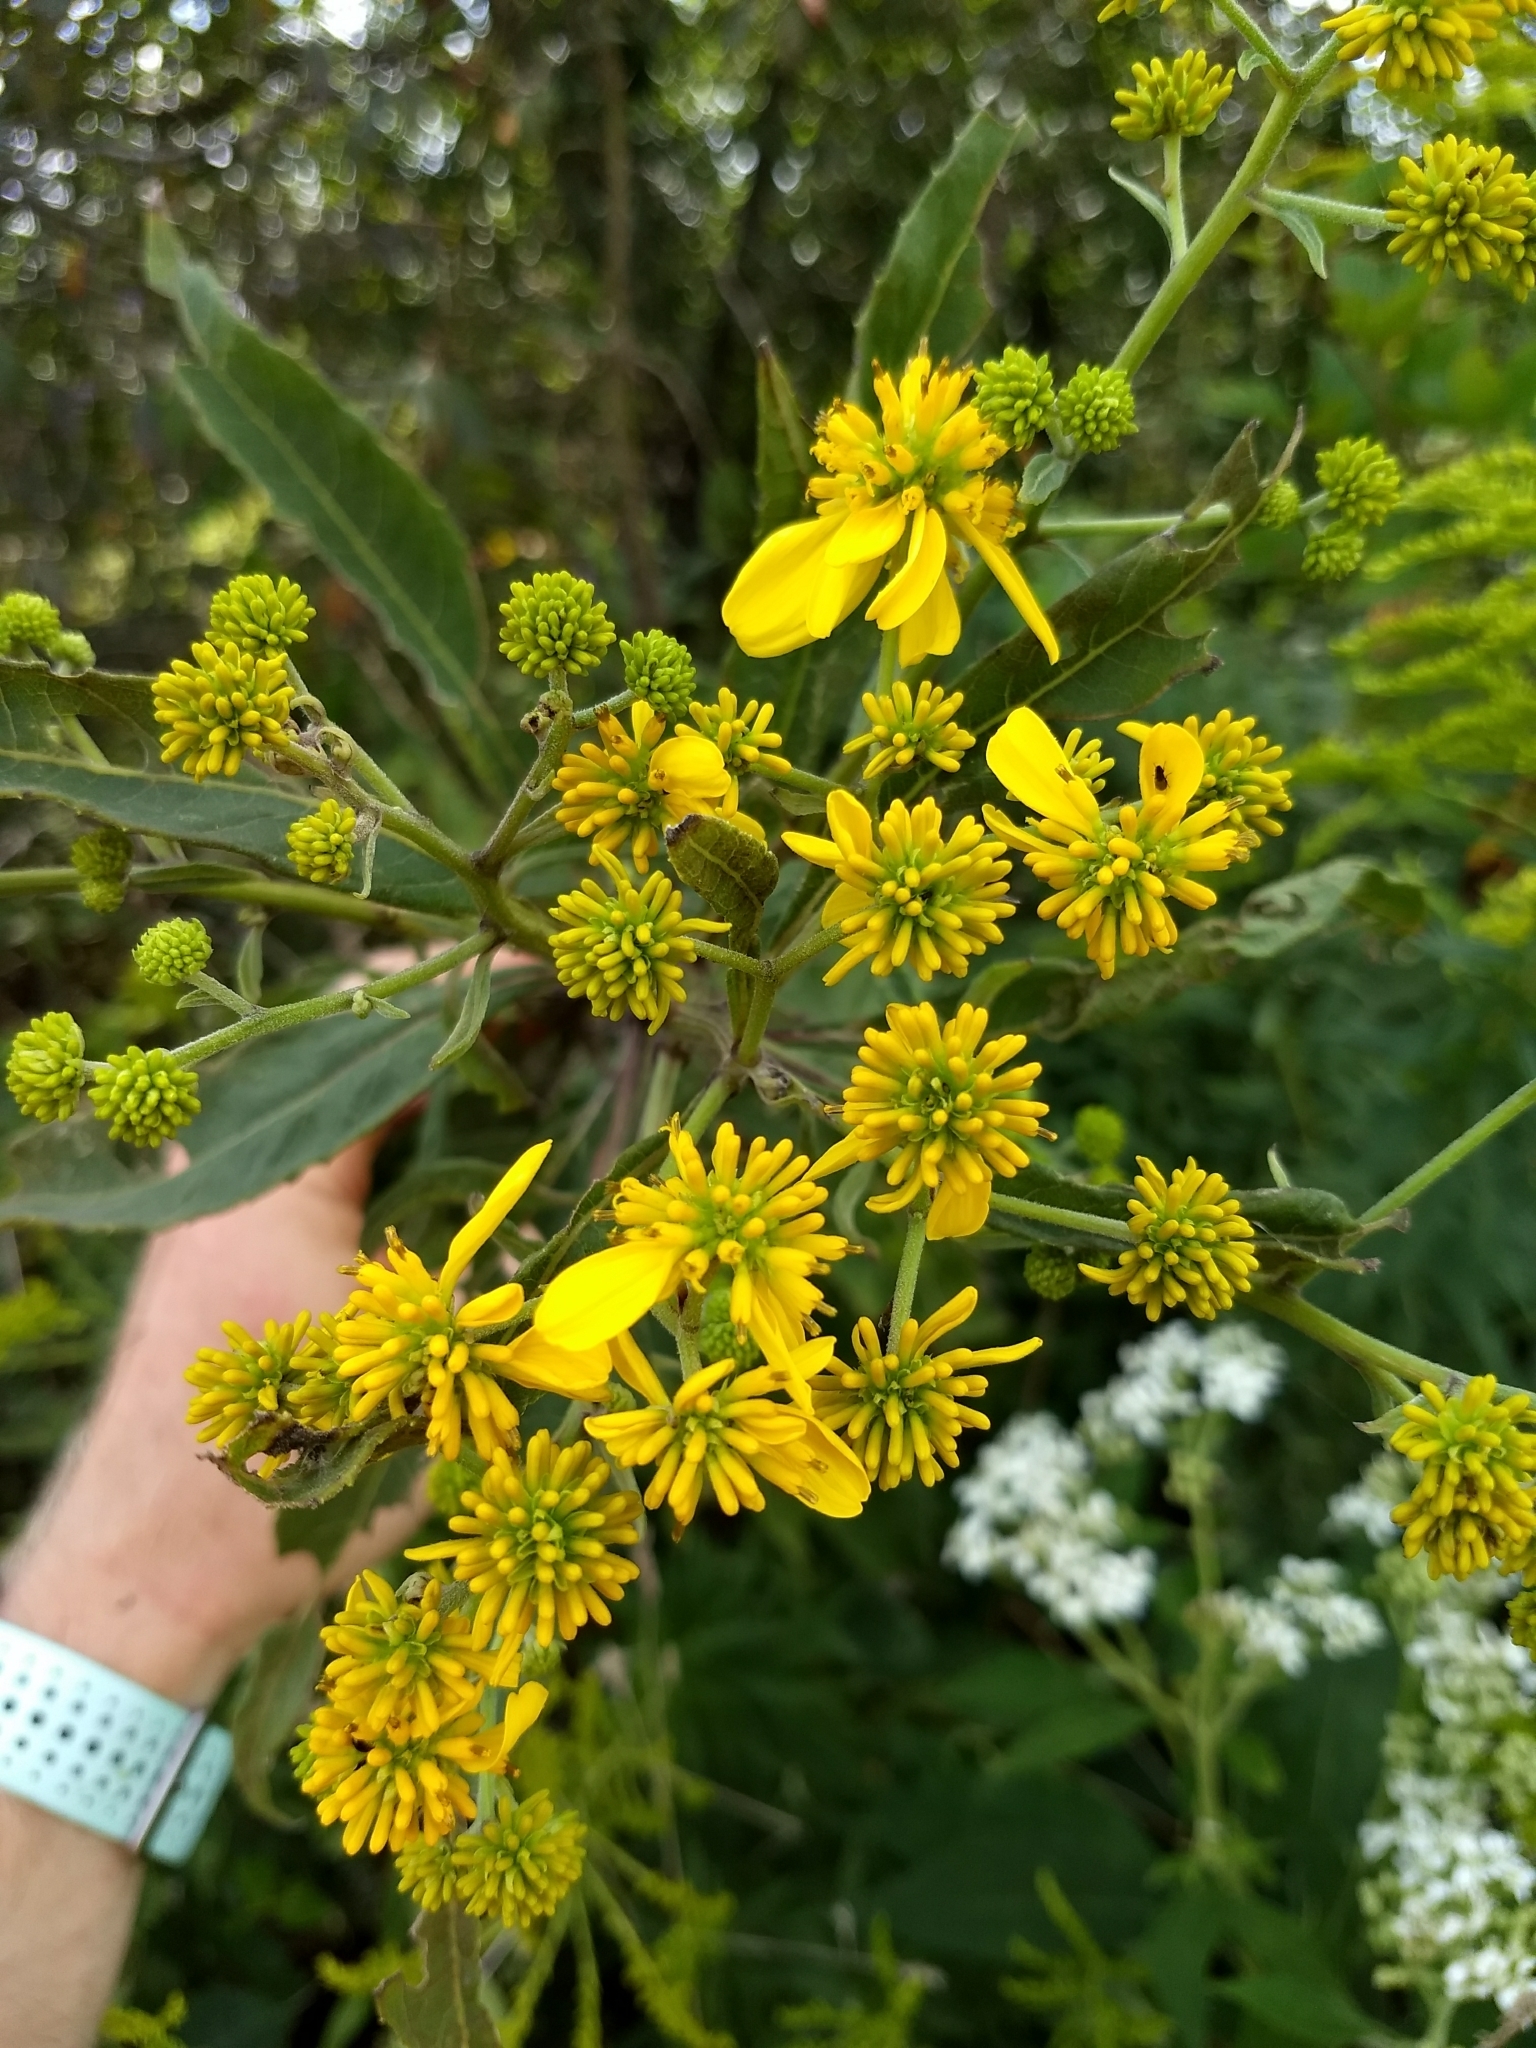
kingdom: Plantae
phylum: Tracheophyta
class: Magnoliopsida
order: Asterales
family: Asteraceae
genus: Verbesina
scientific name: Verbesina alternifolia
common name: Wingstem
